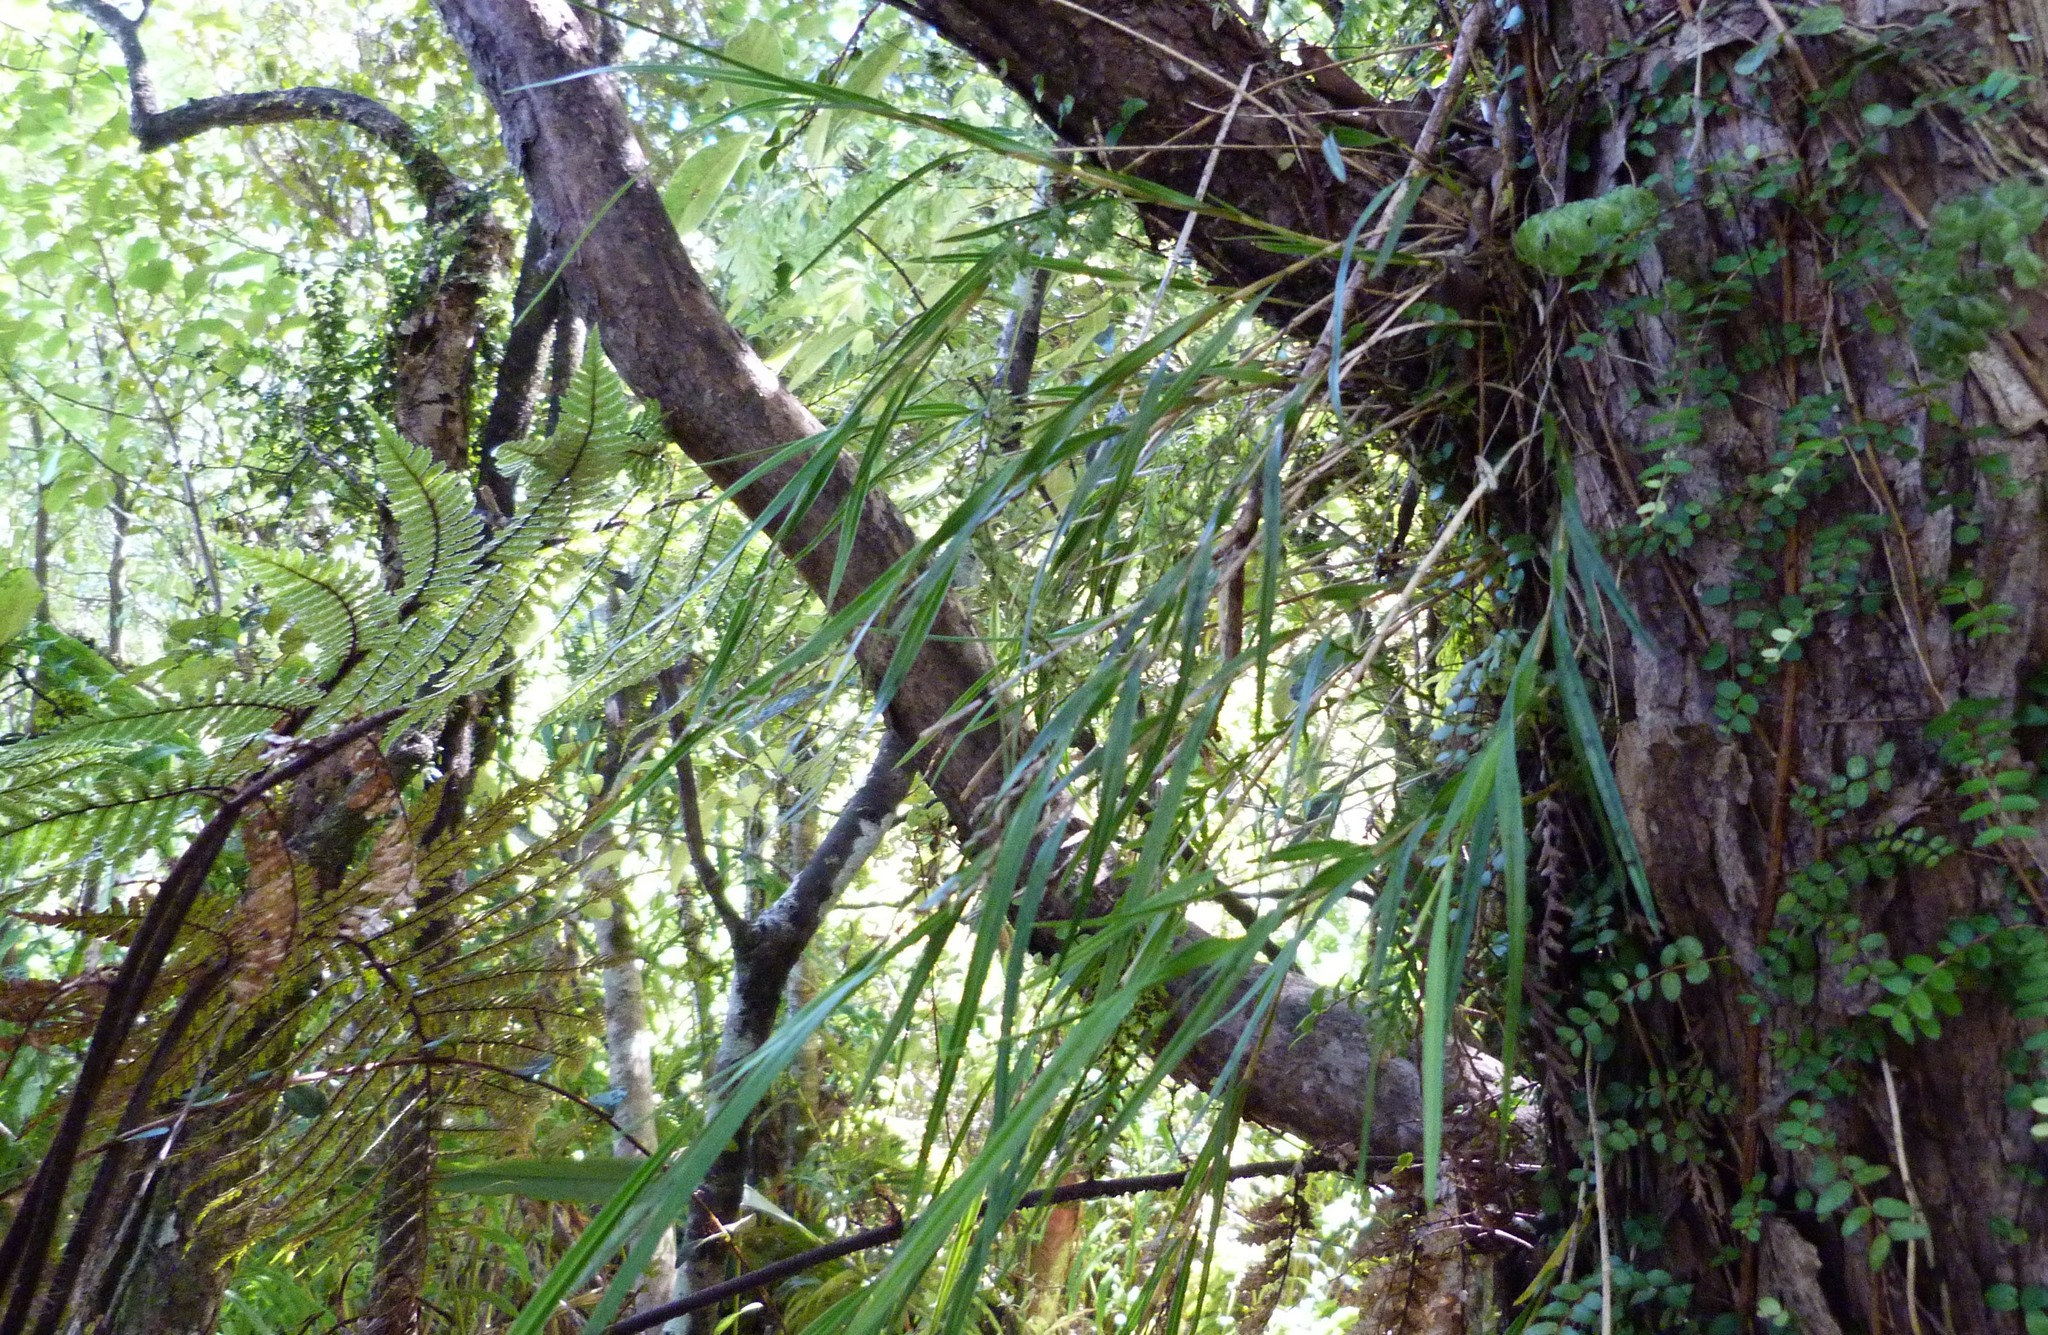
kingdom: Plantae
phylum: Tracheophyta
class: Liliopsida
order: Asparagales
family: Orchidaceae
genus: Earina
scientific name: Earina mucronata
